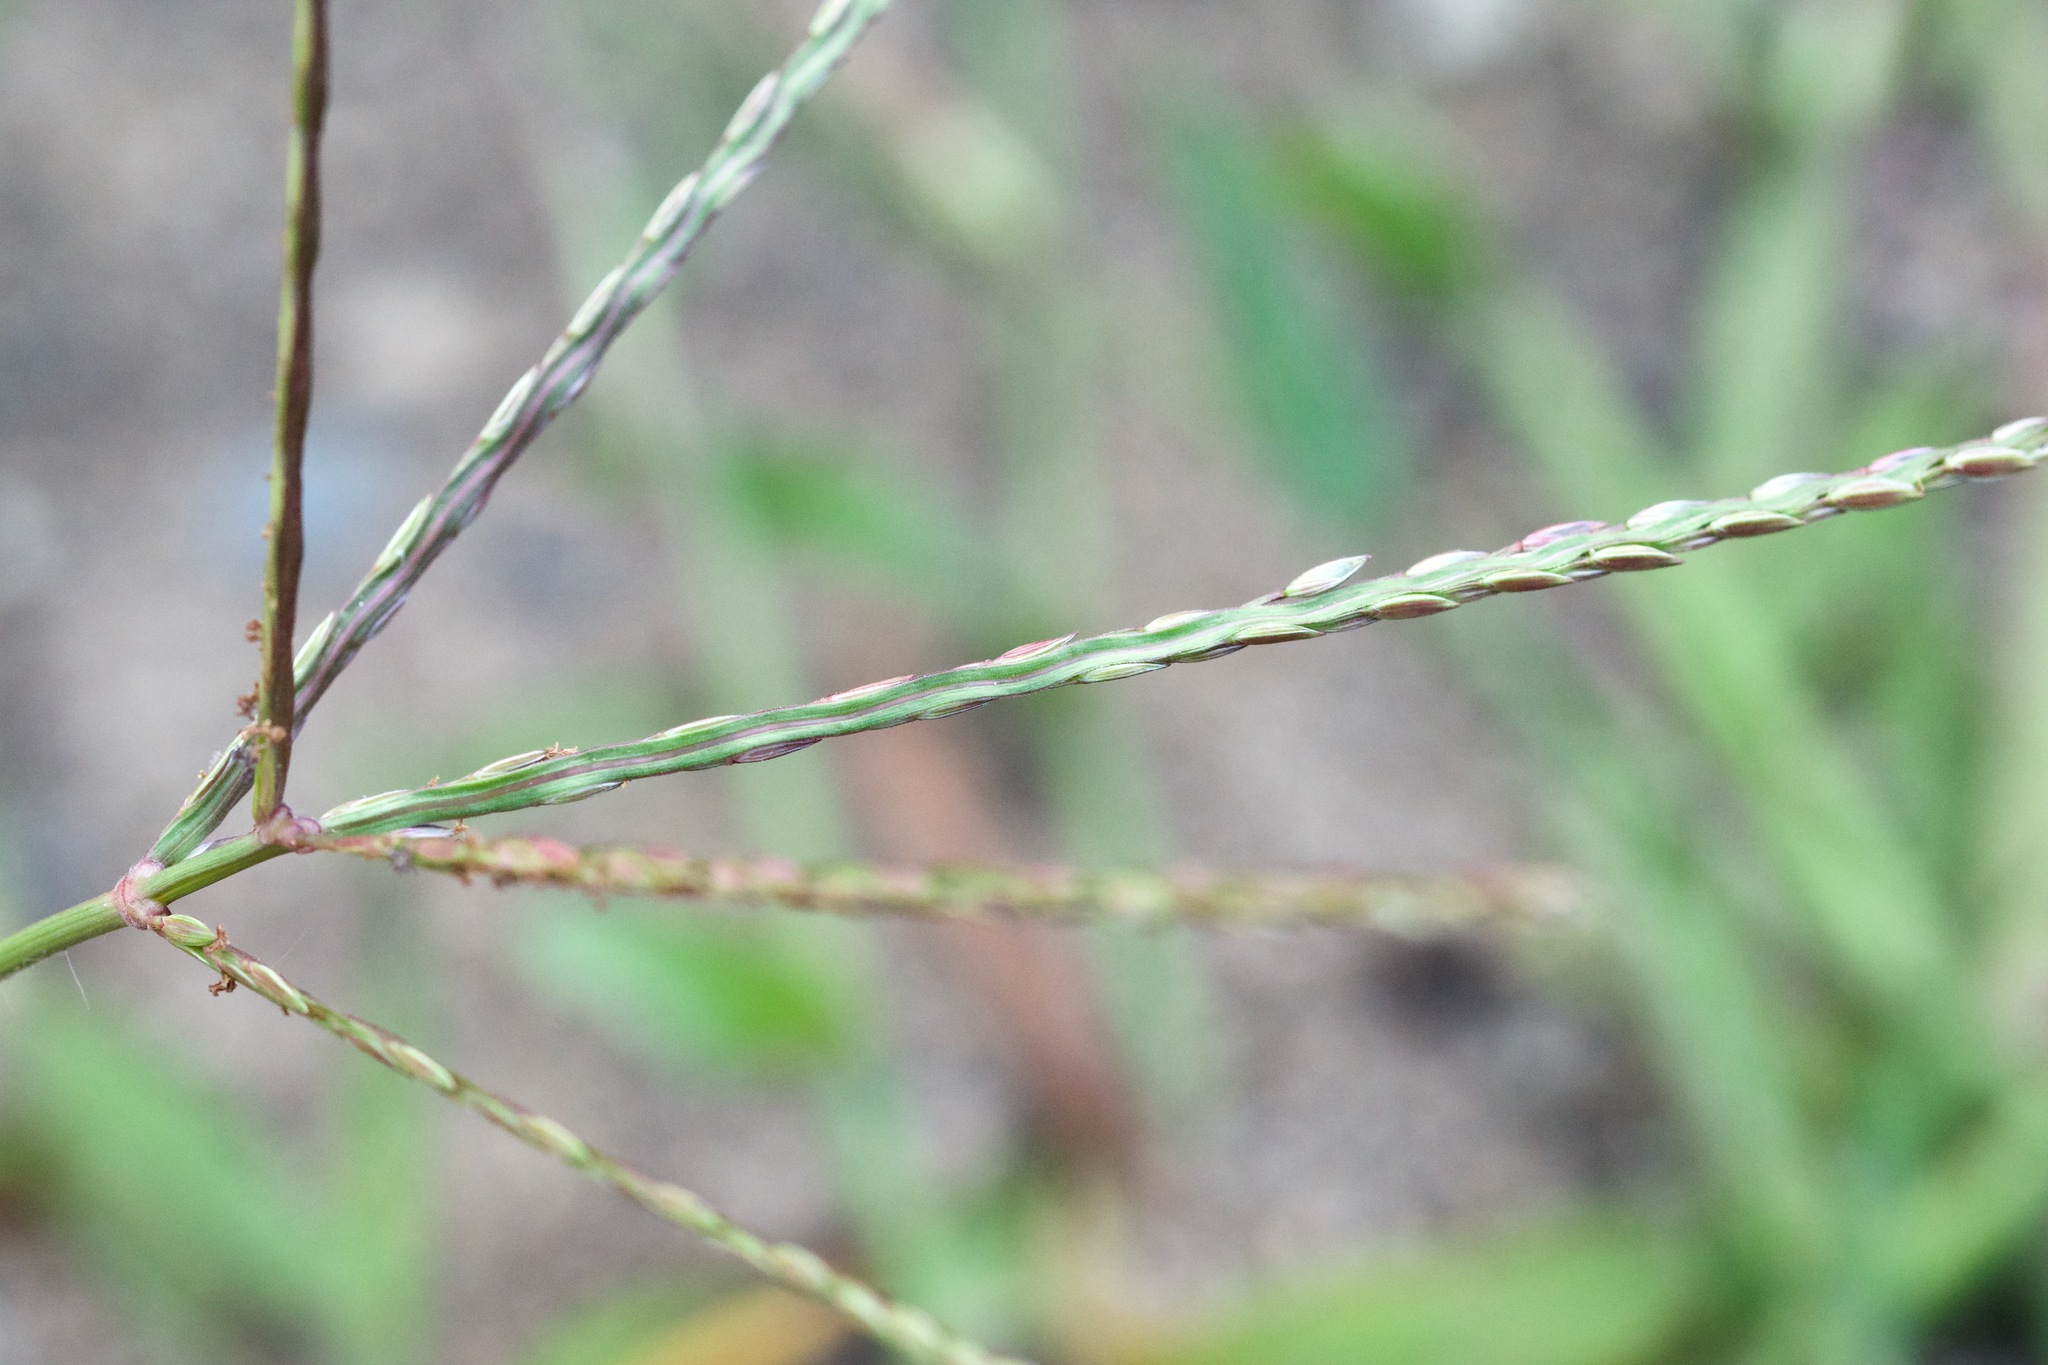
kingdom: Plantae
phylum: Tracheophyta
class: Liliopsida
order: Poales
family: Poaceae
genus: Digitaria
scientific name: Digitaria sanguinalis
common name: Hairy crabgrass
